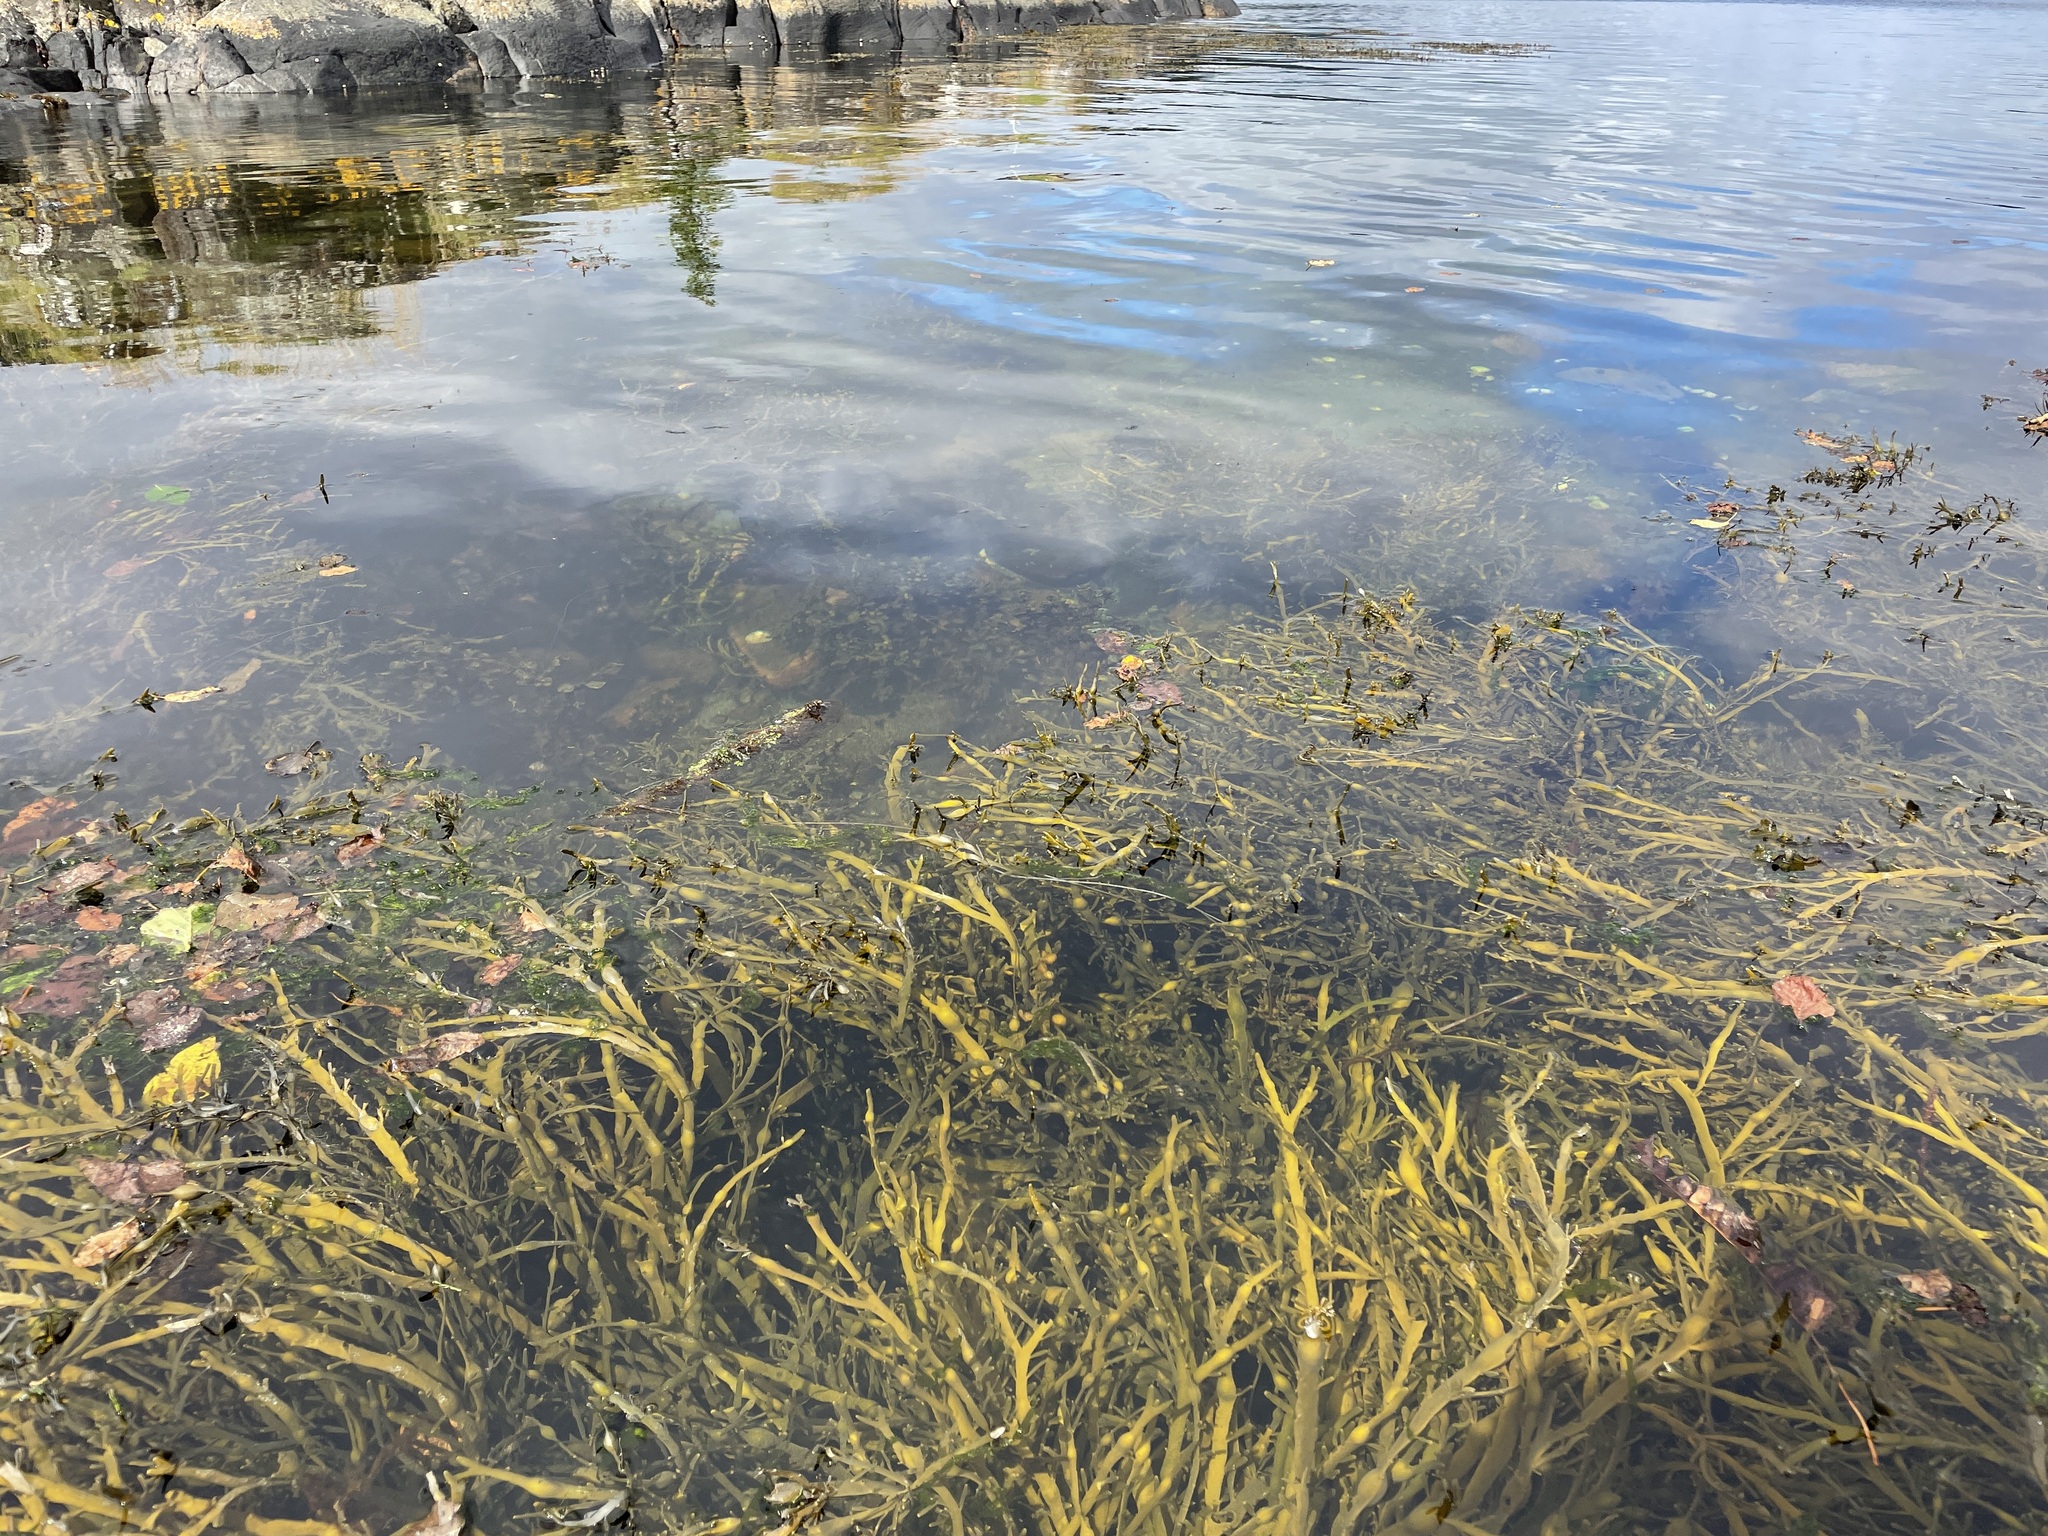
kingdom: Chromista
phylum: Ochrophyta
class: Phaeophyceae
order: Fucales
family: Fucaceae
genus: Ascophyllum
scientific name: Ascophyllum nodosum
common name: Knotted wrack
